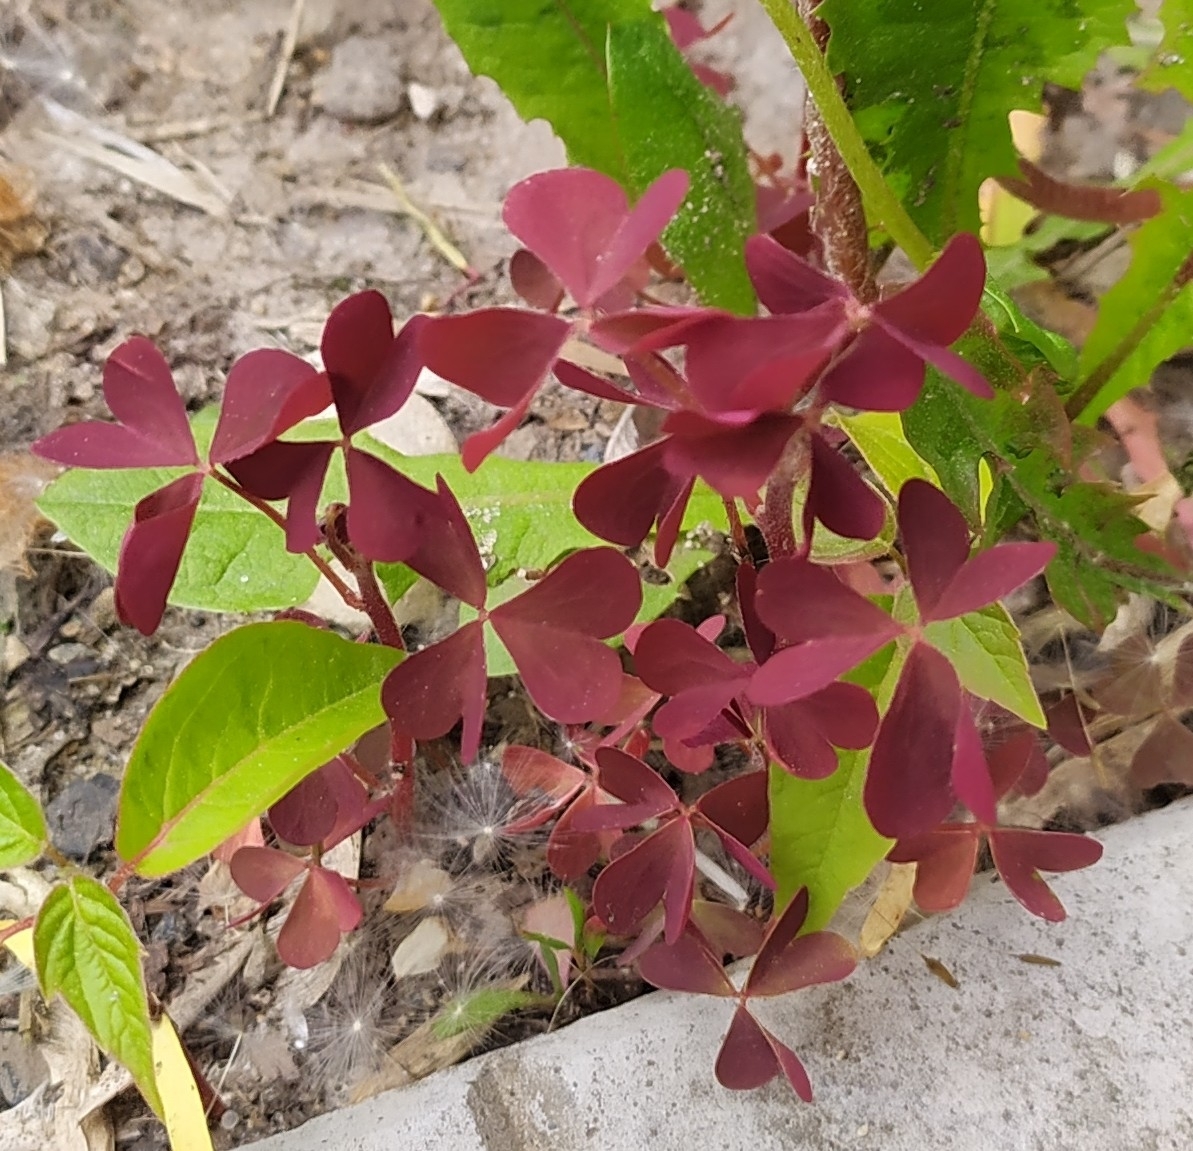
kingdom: Plantae
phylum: Tracheophyta
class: Magnoliopsida
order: Oxalidales
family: Oxalidaceae
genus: Oxalis
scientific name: Oxalis stricta
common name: Upright yellow-sorrel
